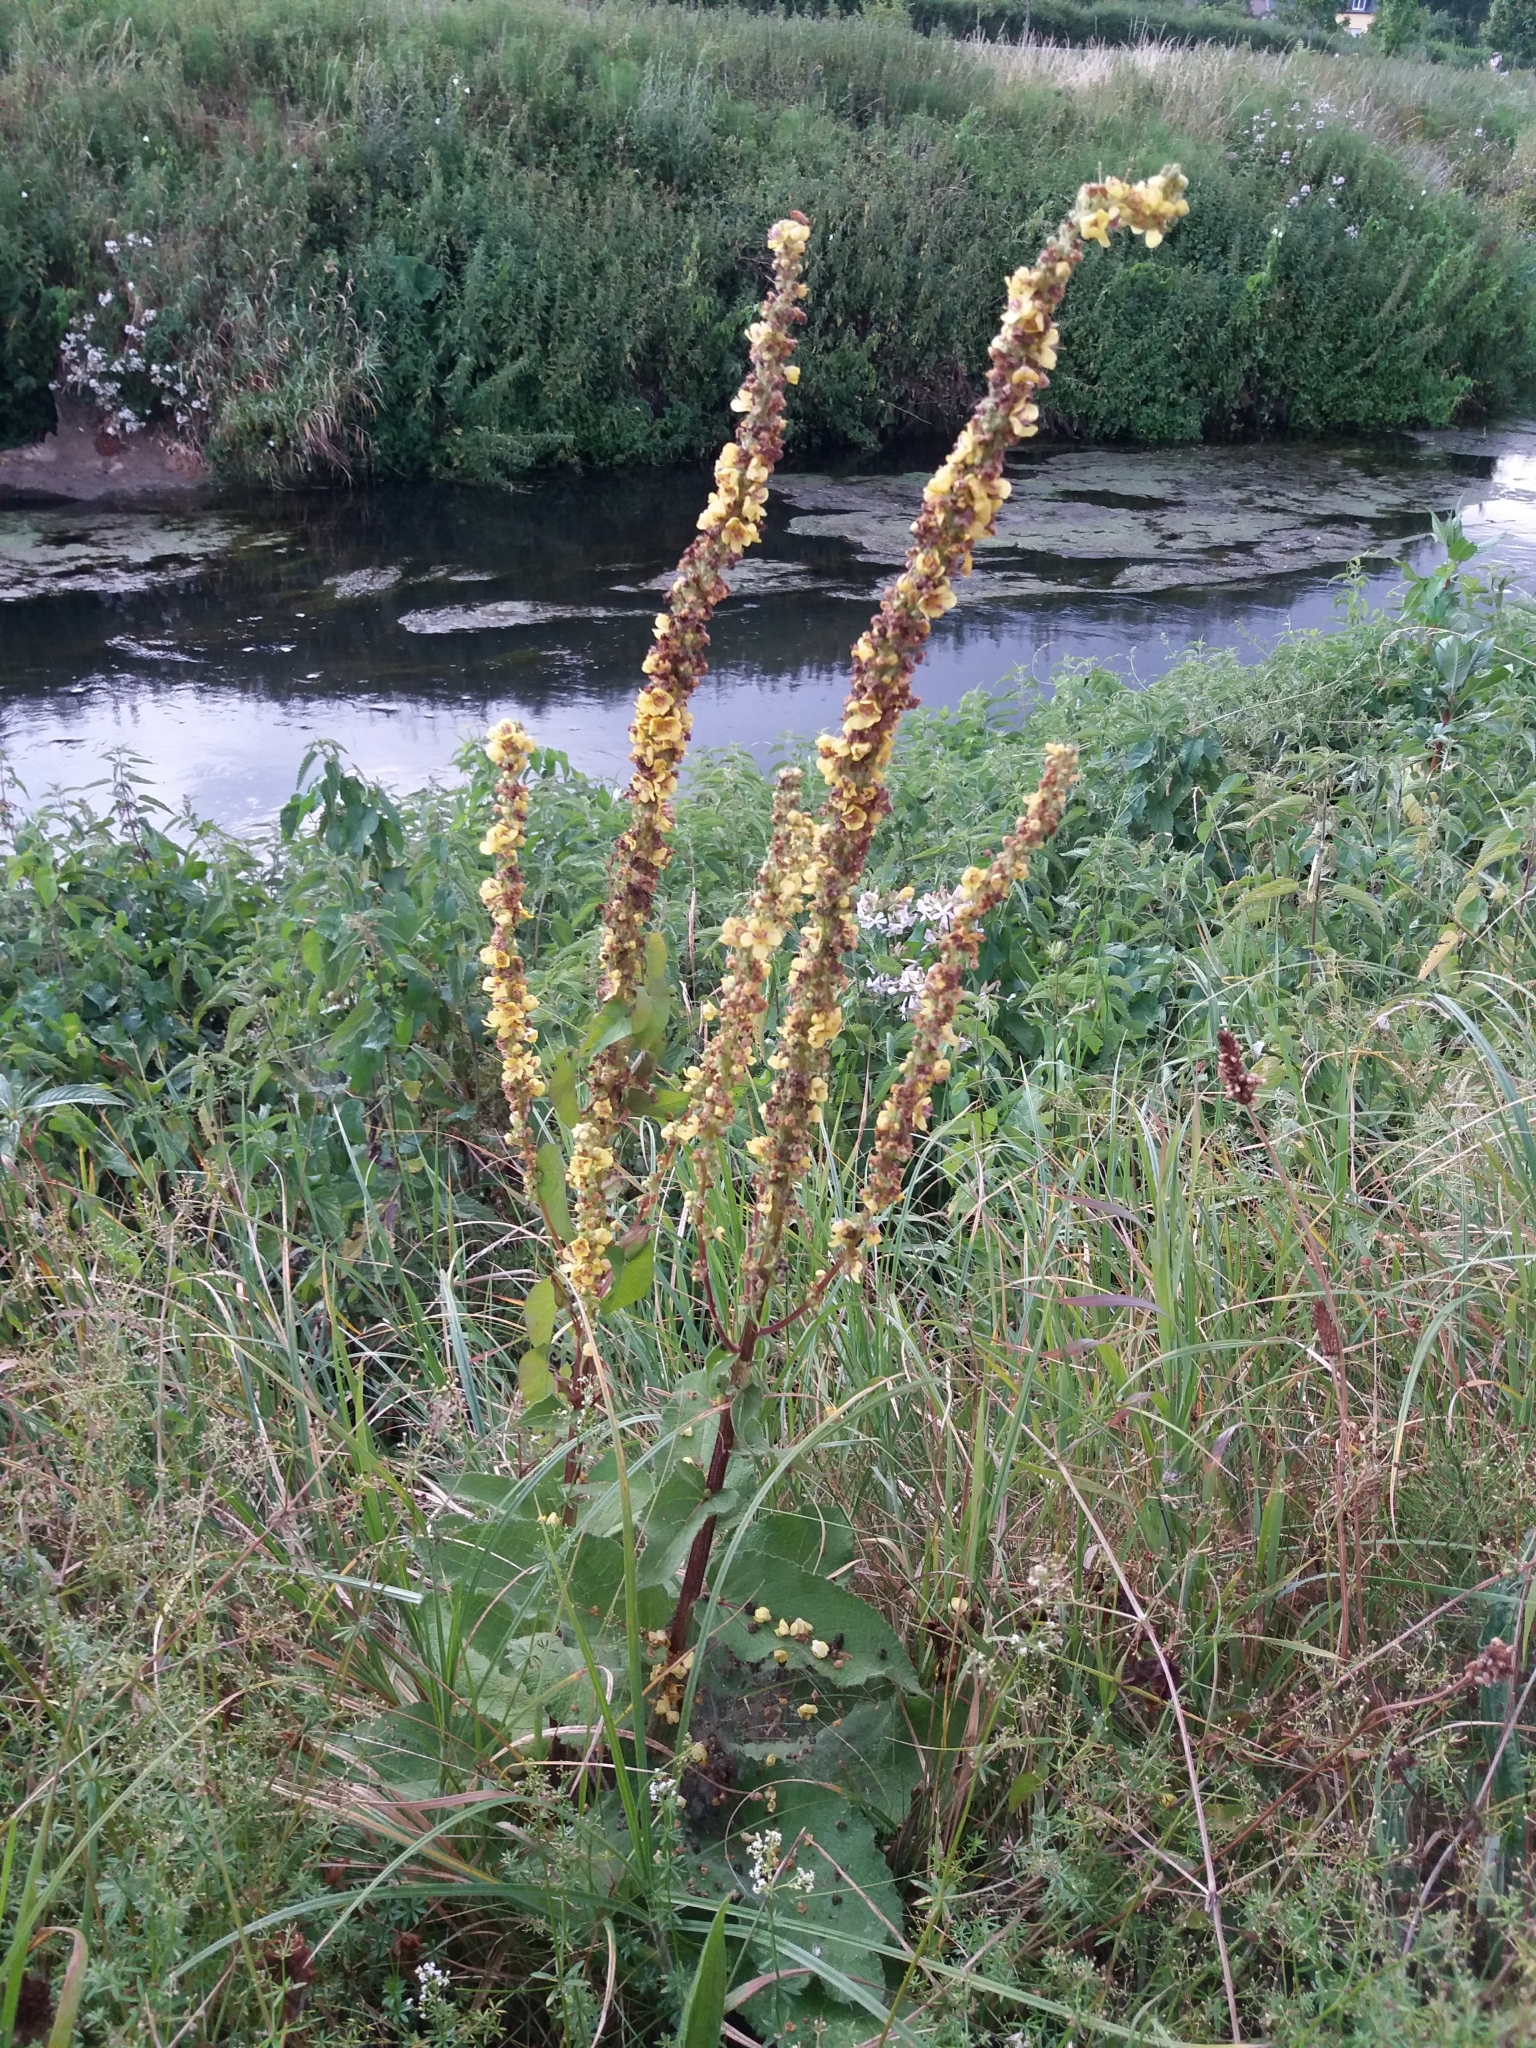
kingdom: Plantae
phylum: Tracheophyta
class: Magnoliopsida
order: Lamiales
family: Scrophulariaceae
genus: Verbascum
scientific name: Verbascum nigrum
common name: Dark mullein
